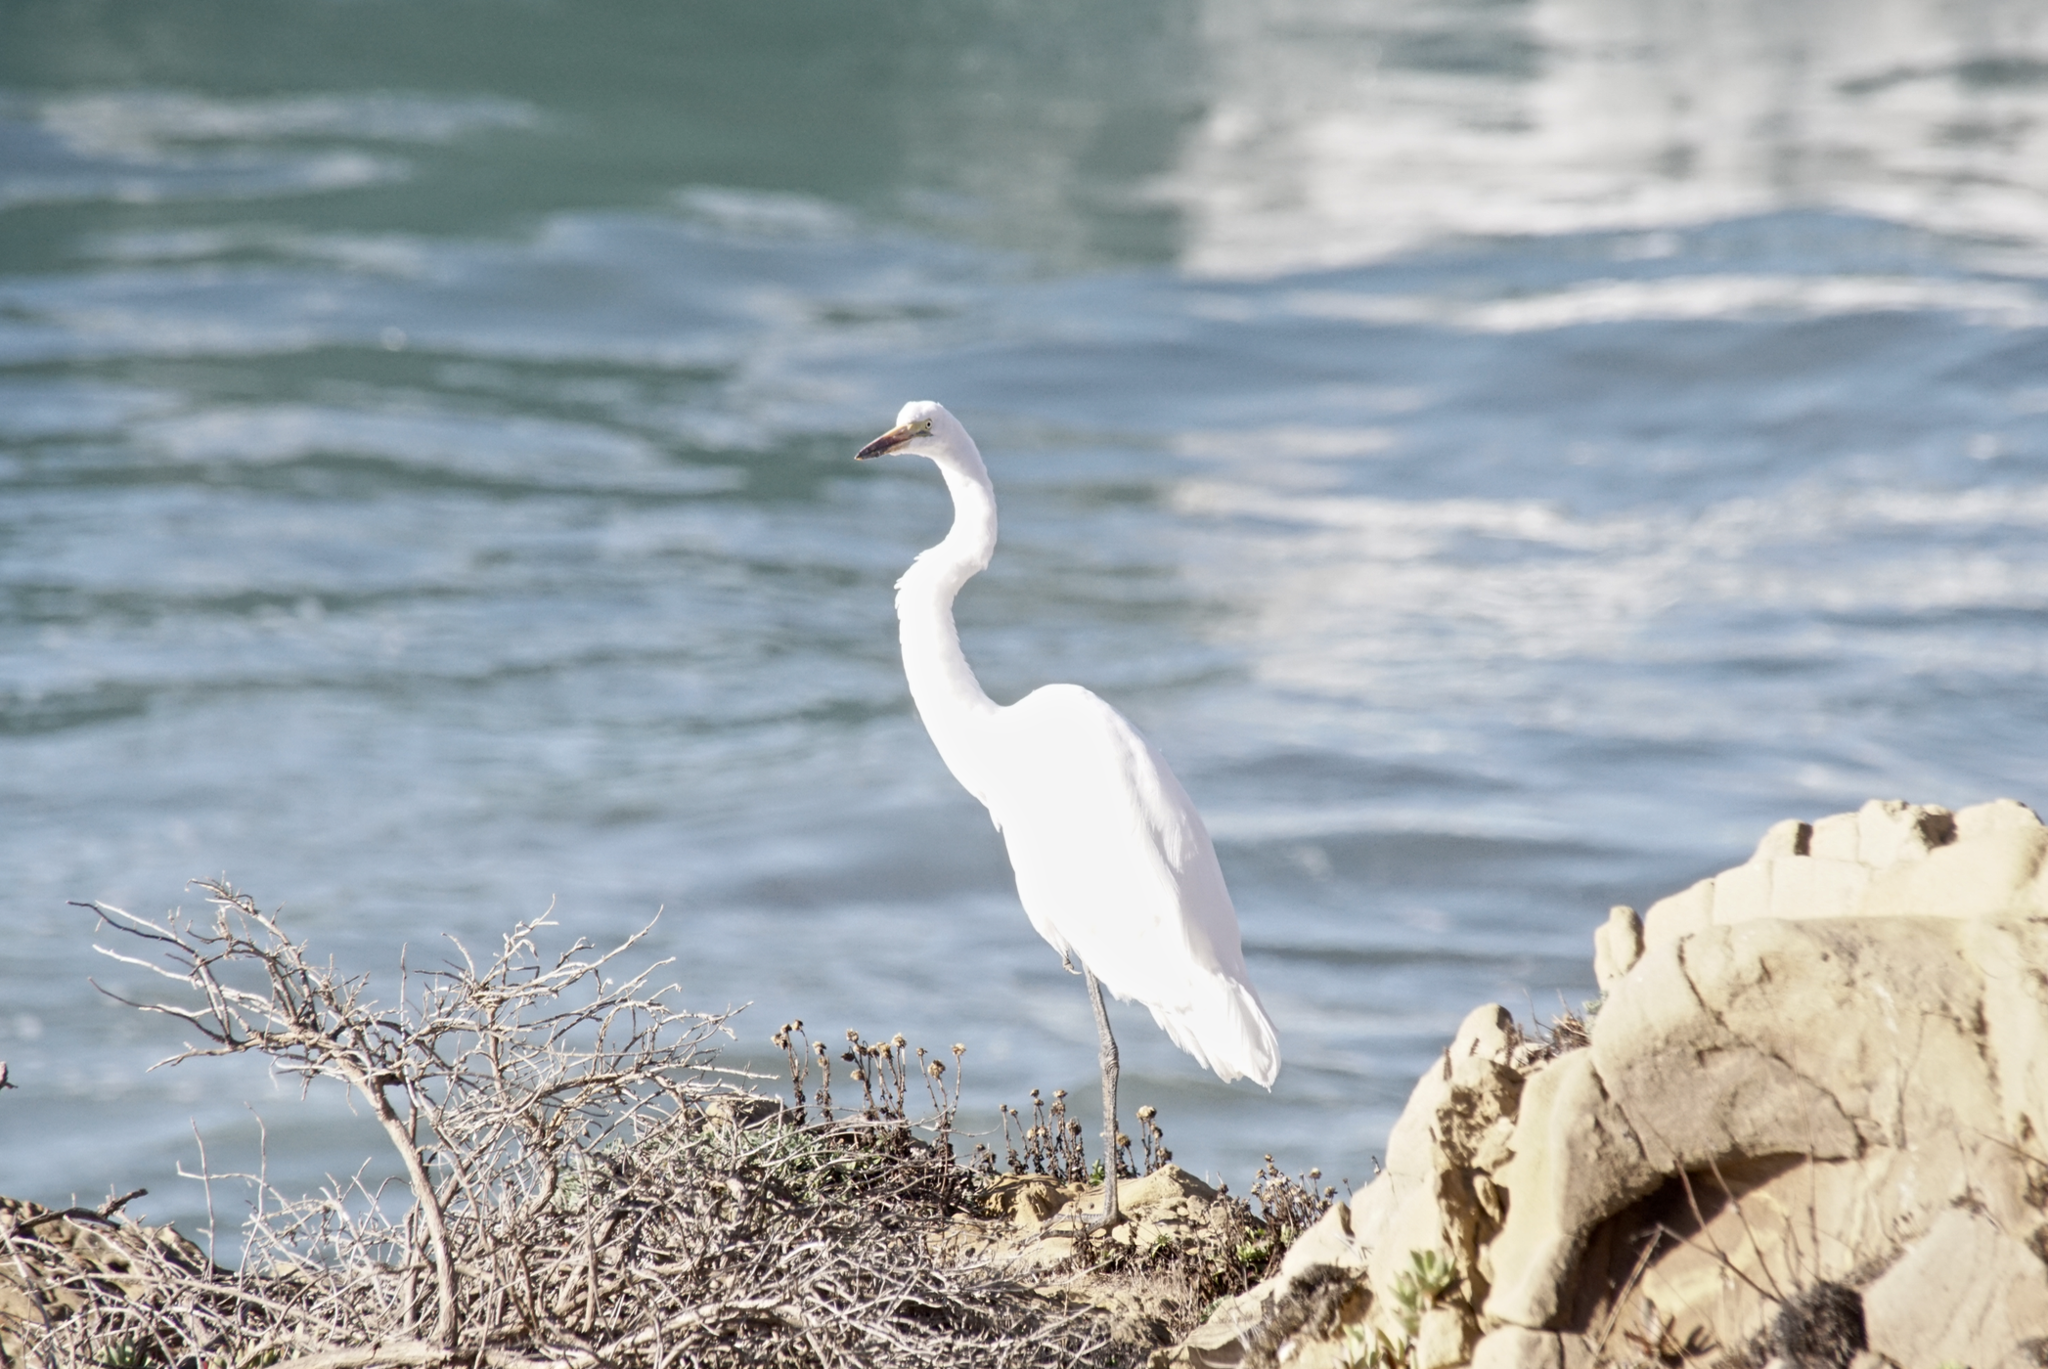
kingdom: Animalia
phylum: Chordata
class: Aves
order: Pelecaniformes
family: Ardeidae
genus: Ardea
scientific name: Ardea alba
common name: Great egret
